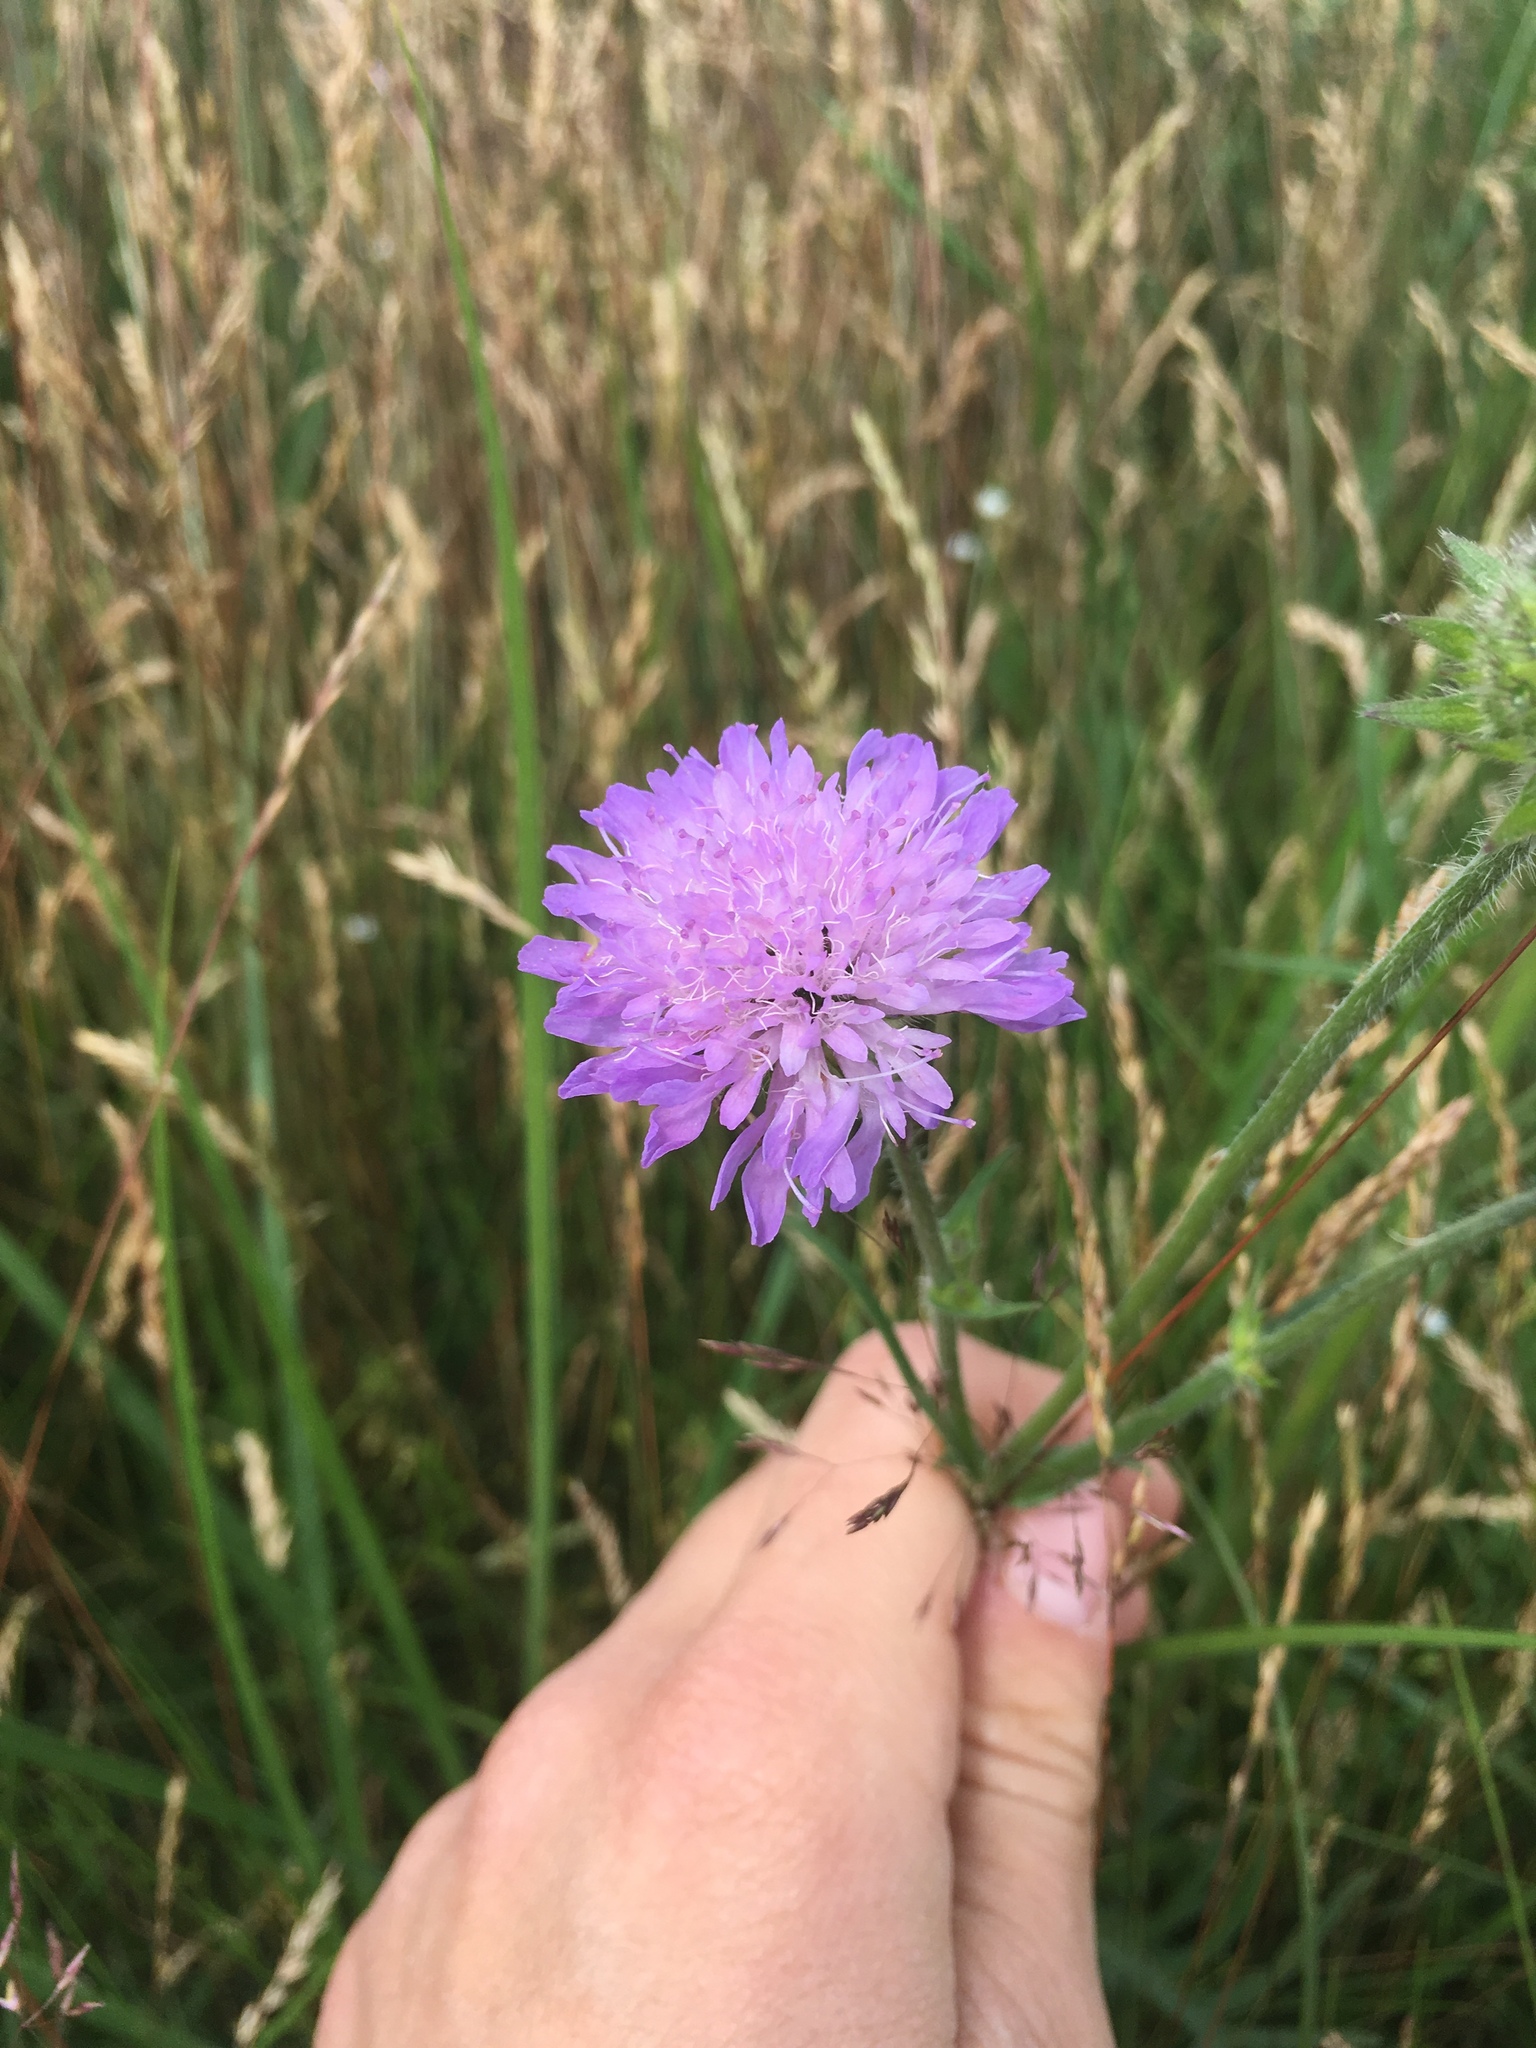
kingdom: Plantae
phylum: Tracheophyta
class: Magnoliopsida
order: Dipsacales
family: Caprifoliaceae
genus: Knautia
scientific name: Knautia arvensis
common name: Field scabiosa
